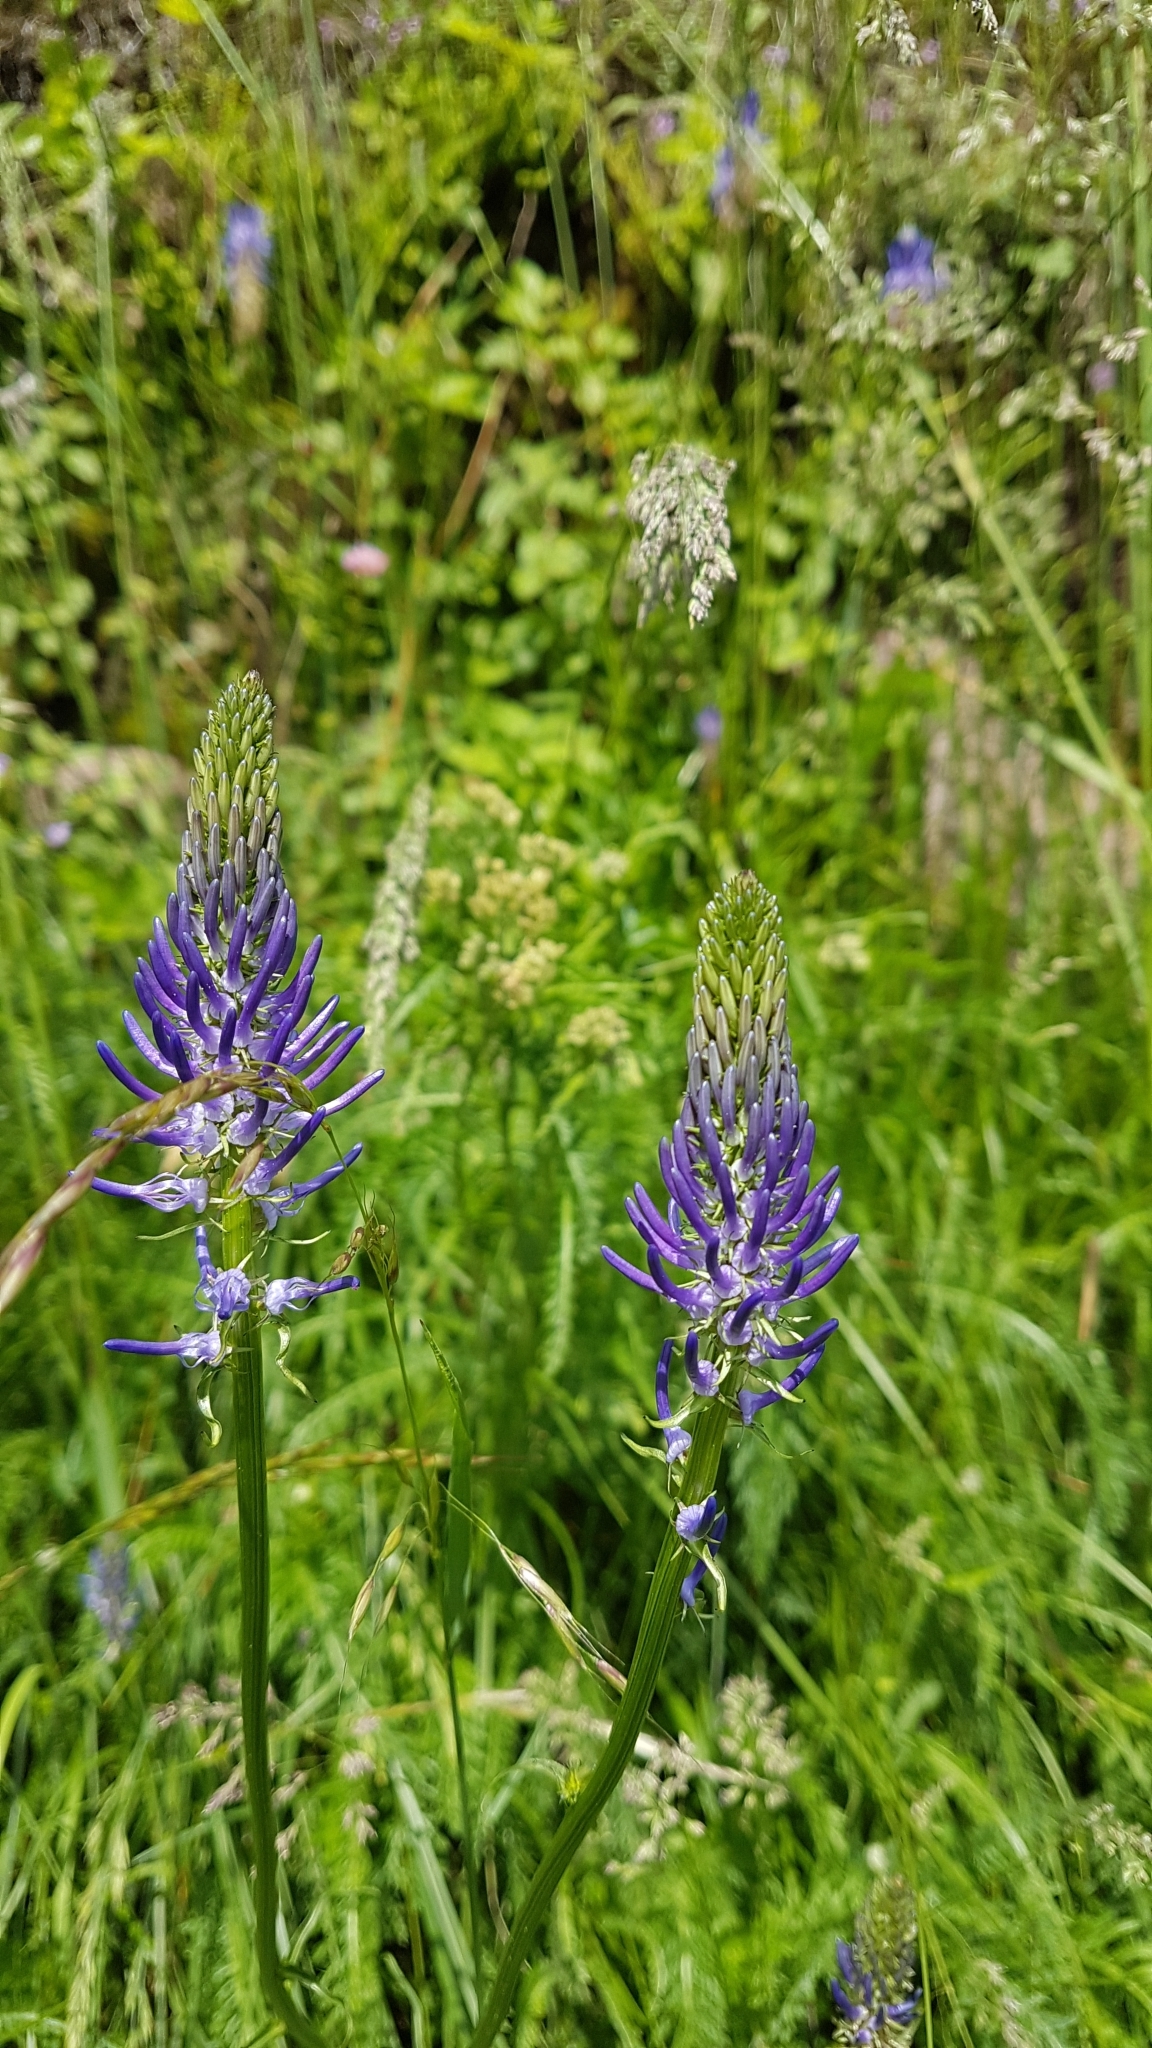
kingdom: Plantae
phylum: Tracheophyta
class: Magnoliopsida
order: Asterales
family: Campanulaceae
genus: Phyteuma
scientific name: Phyteuma betonicifolium
